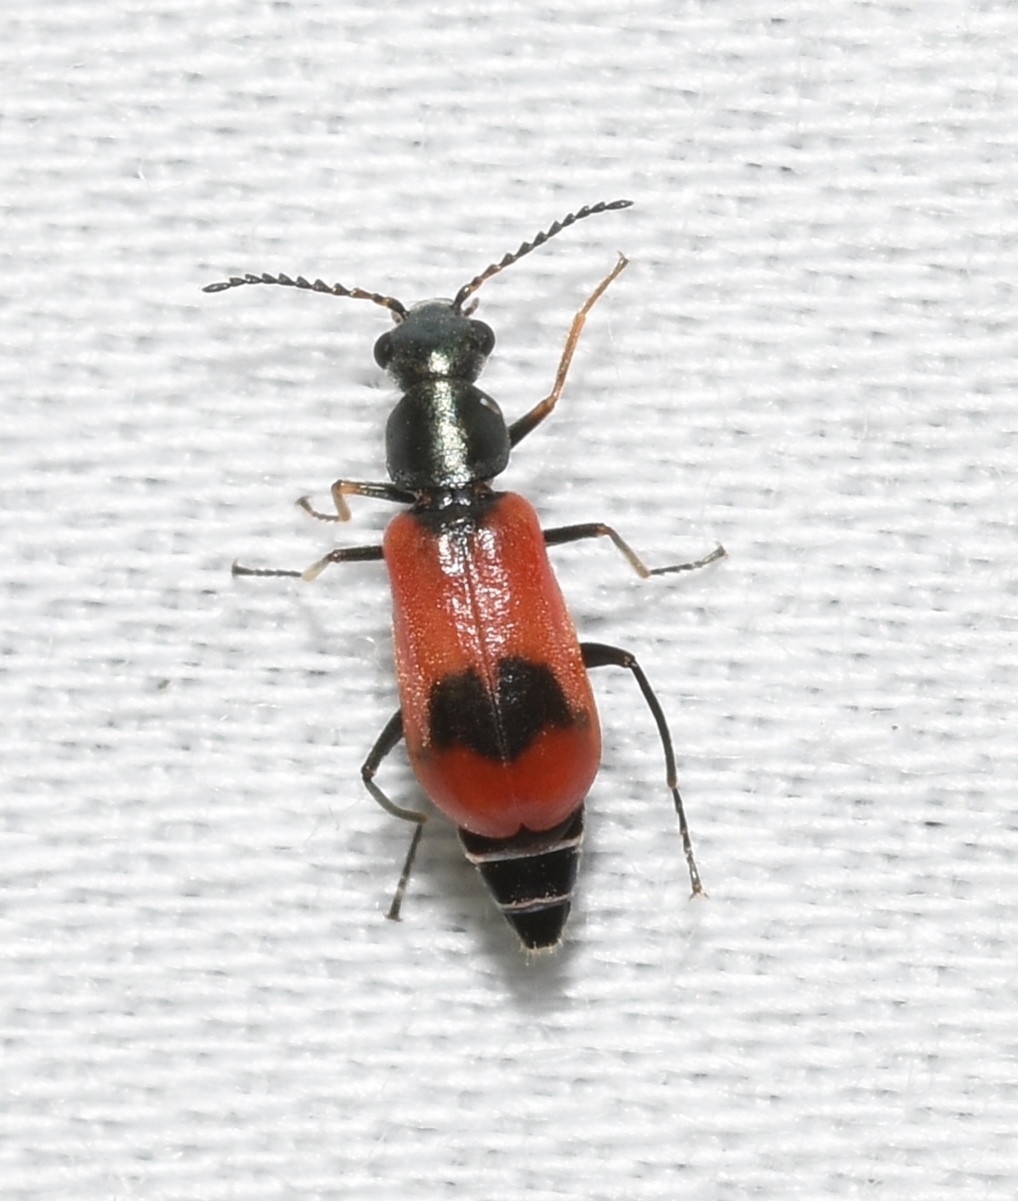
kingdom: Animalia
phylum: Arthropoda
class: Insecta
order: Coleoptera
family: Melyridae
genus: Anthocomus
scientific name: Anthocomus equestris
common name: Black-banded soft-winged flower beetle
